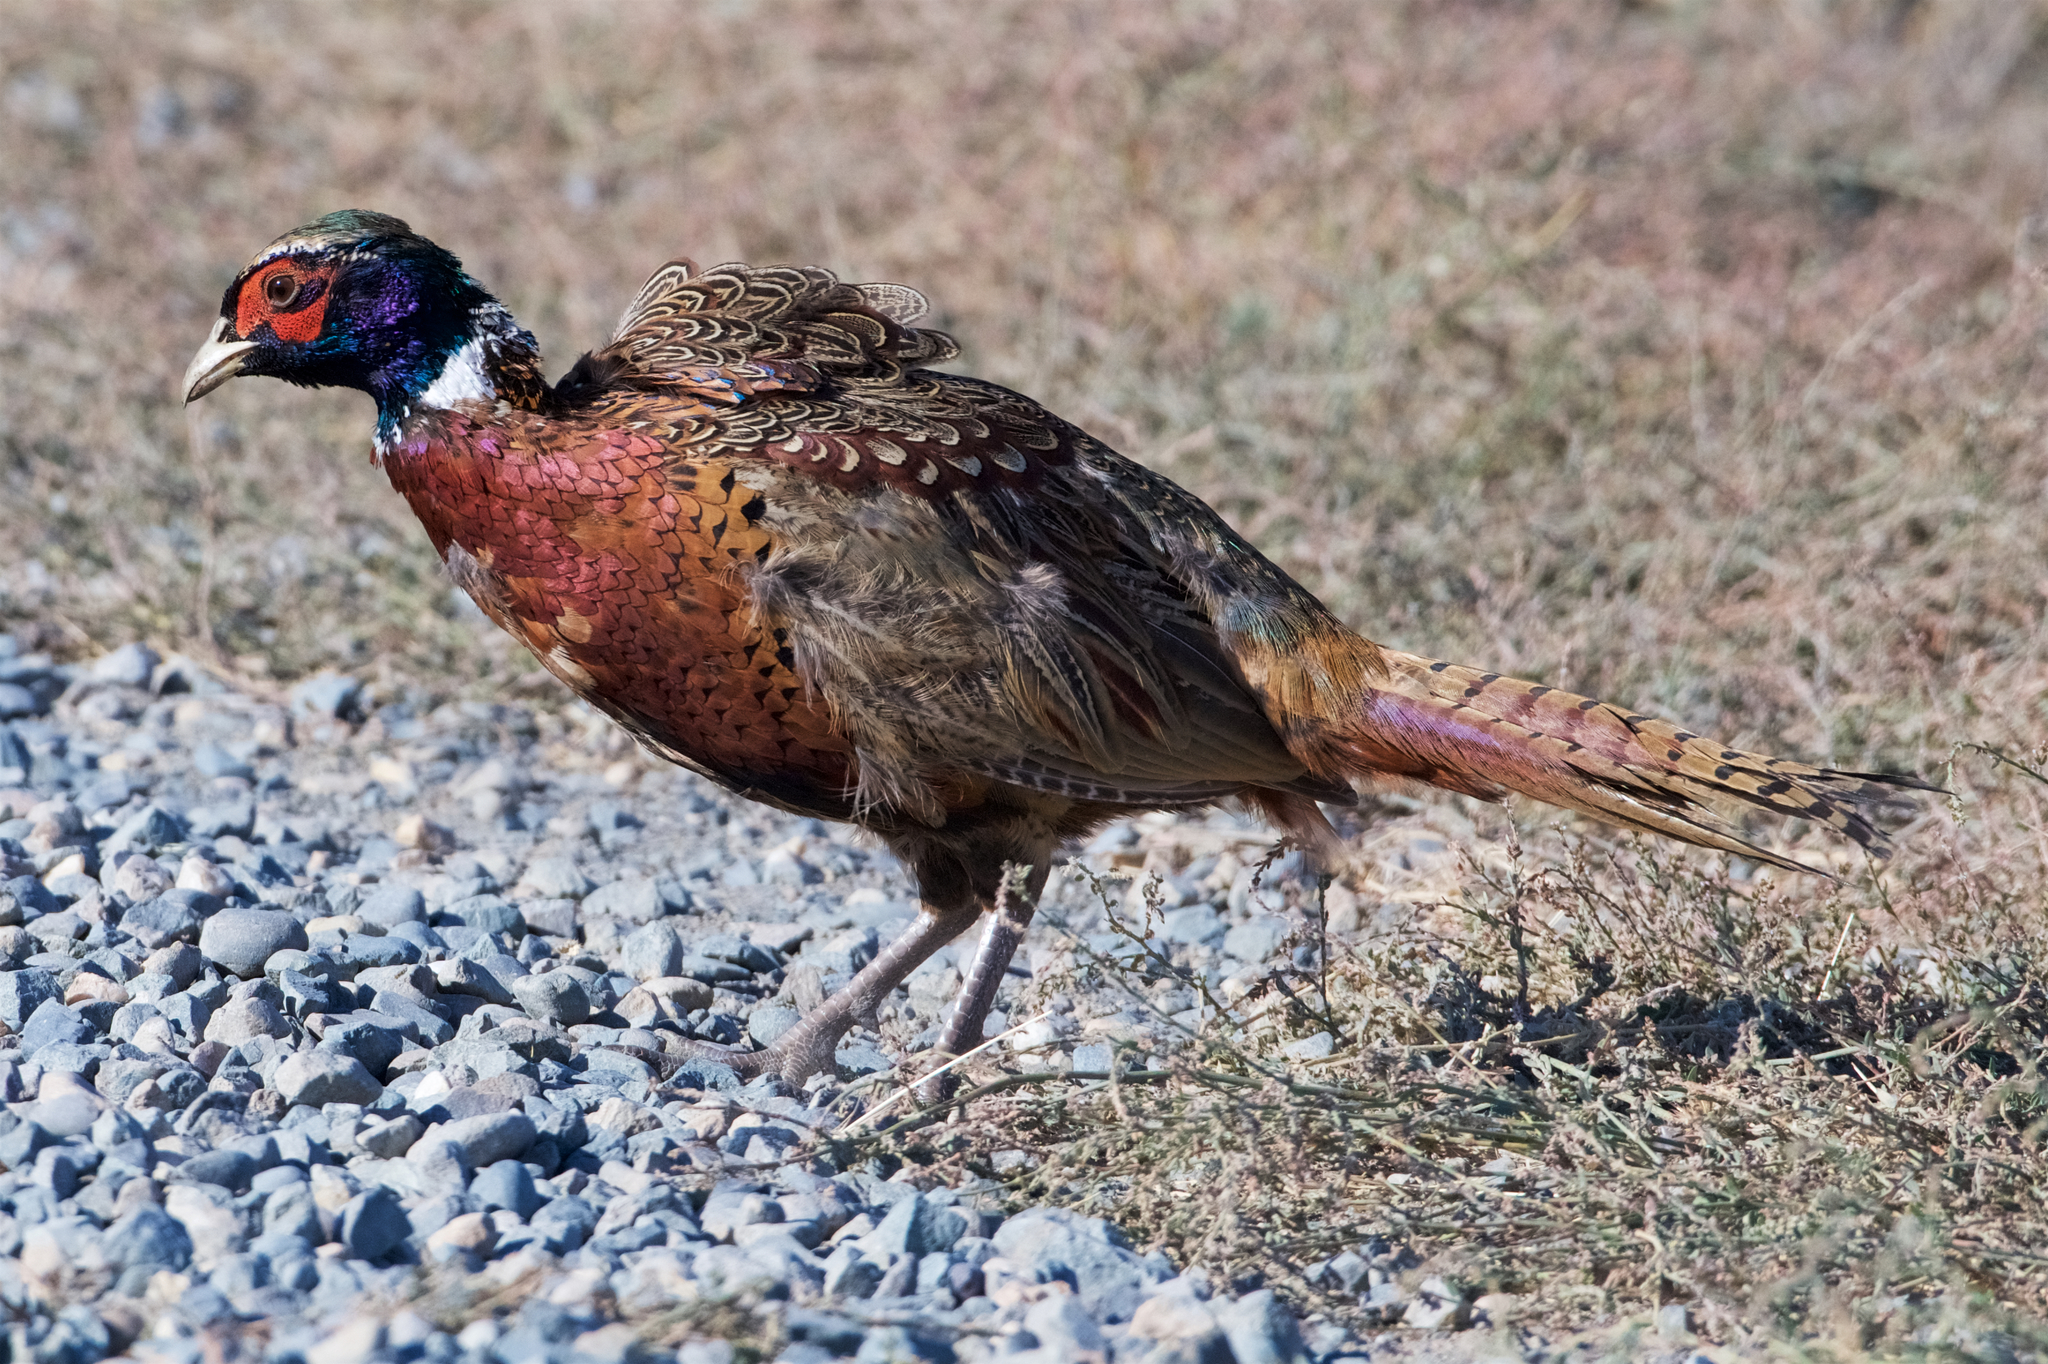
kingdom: Animalia
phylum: Chordata
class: Aves
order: Galliformes
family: Phasianidae
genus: Phasianus
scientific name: Phasianus colchicus
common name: Common pheasant
